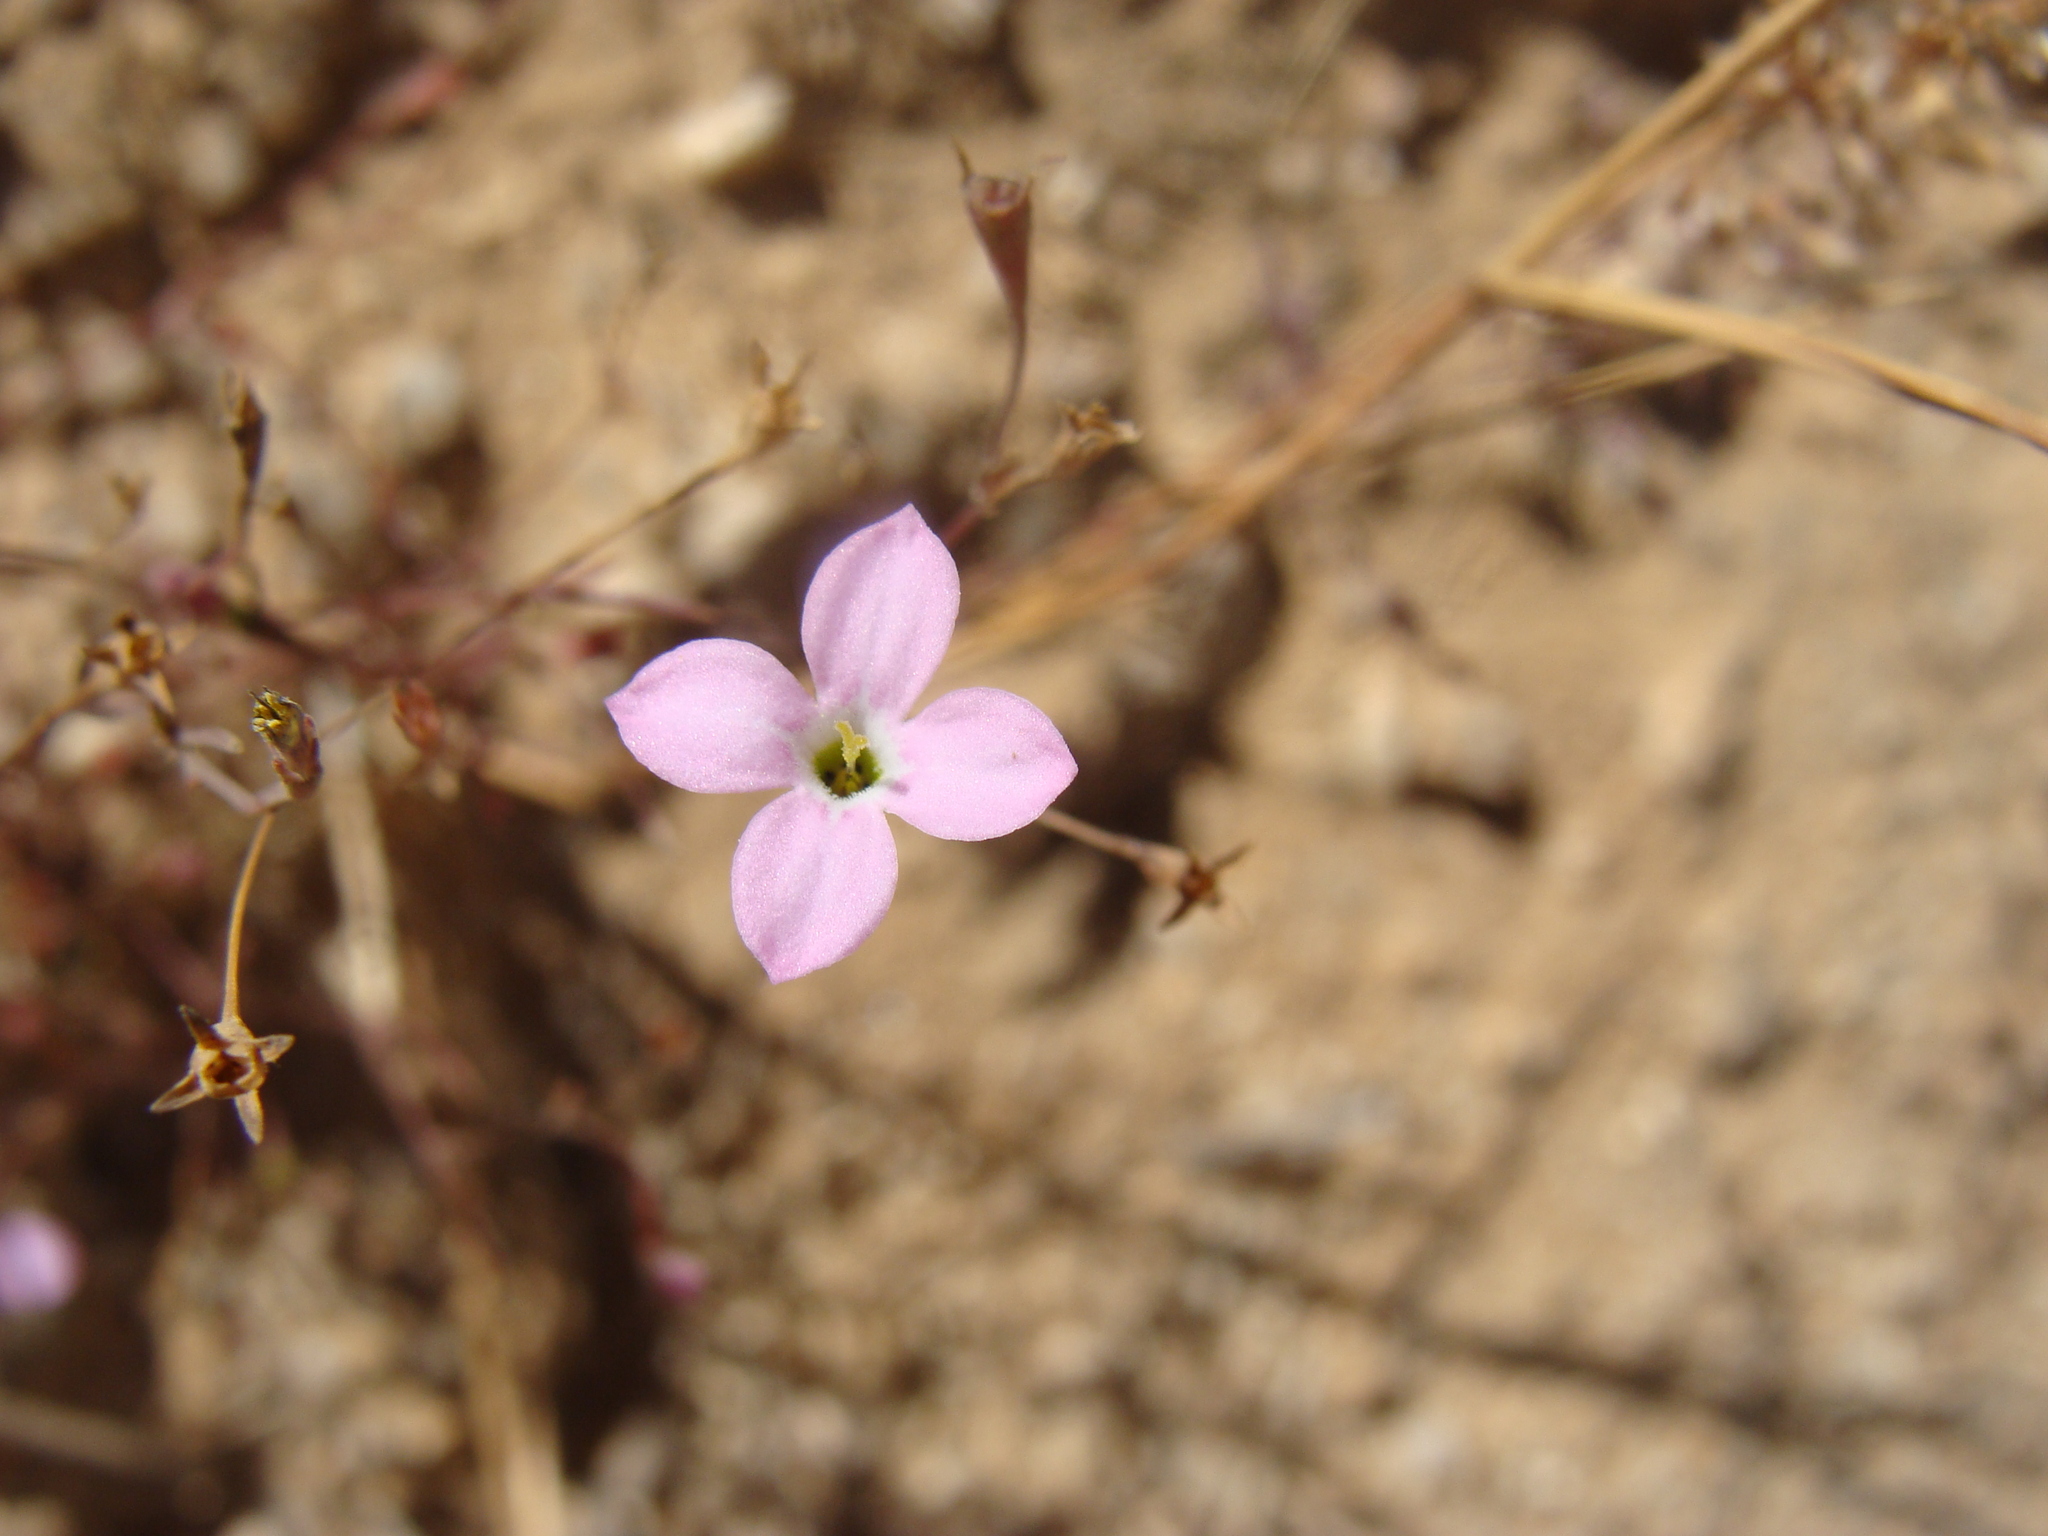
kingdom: Plantae
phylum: Tracheophyta
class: Magnoliopsida
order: Gentianales
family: Rubiaceae
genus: Stenotis
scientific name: Stenotis asperuloides
